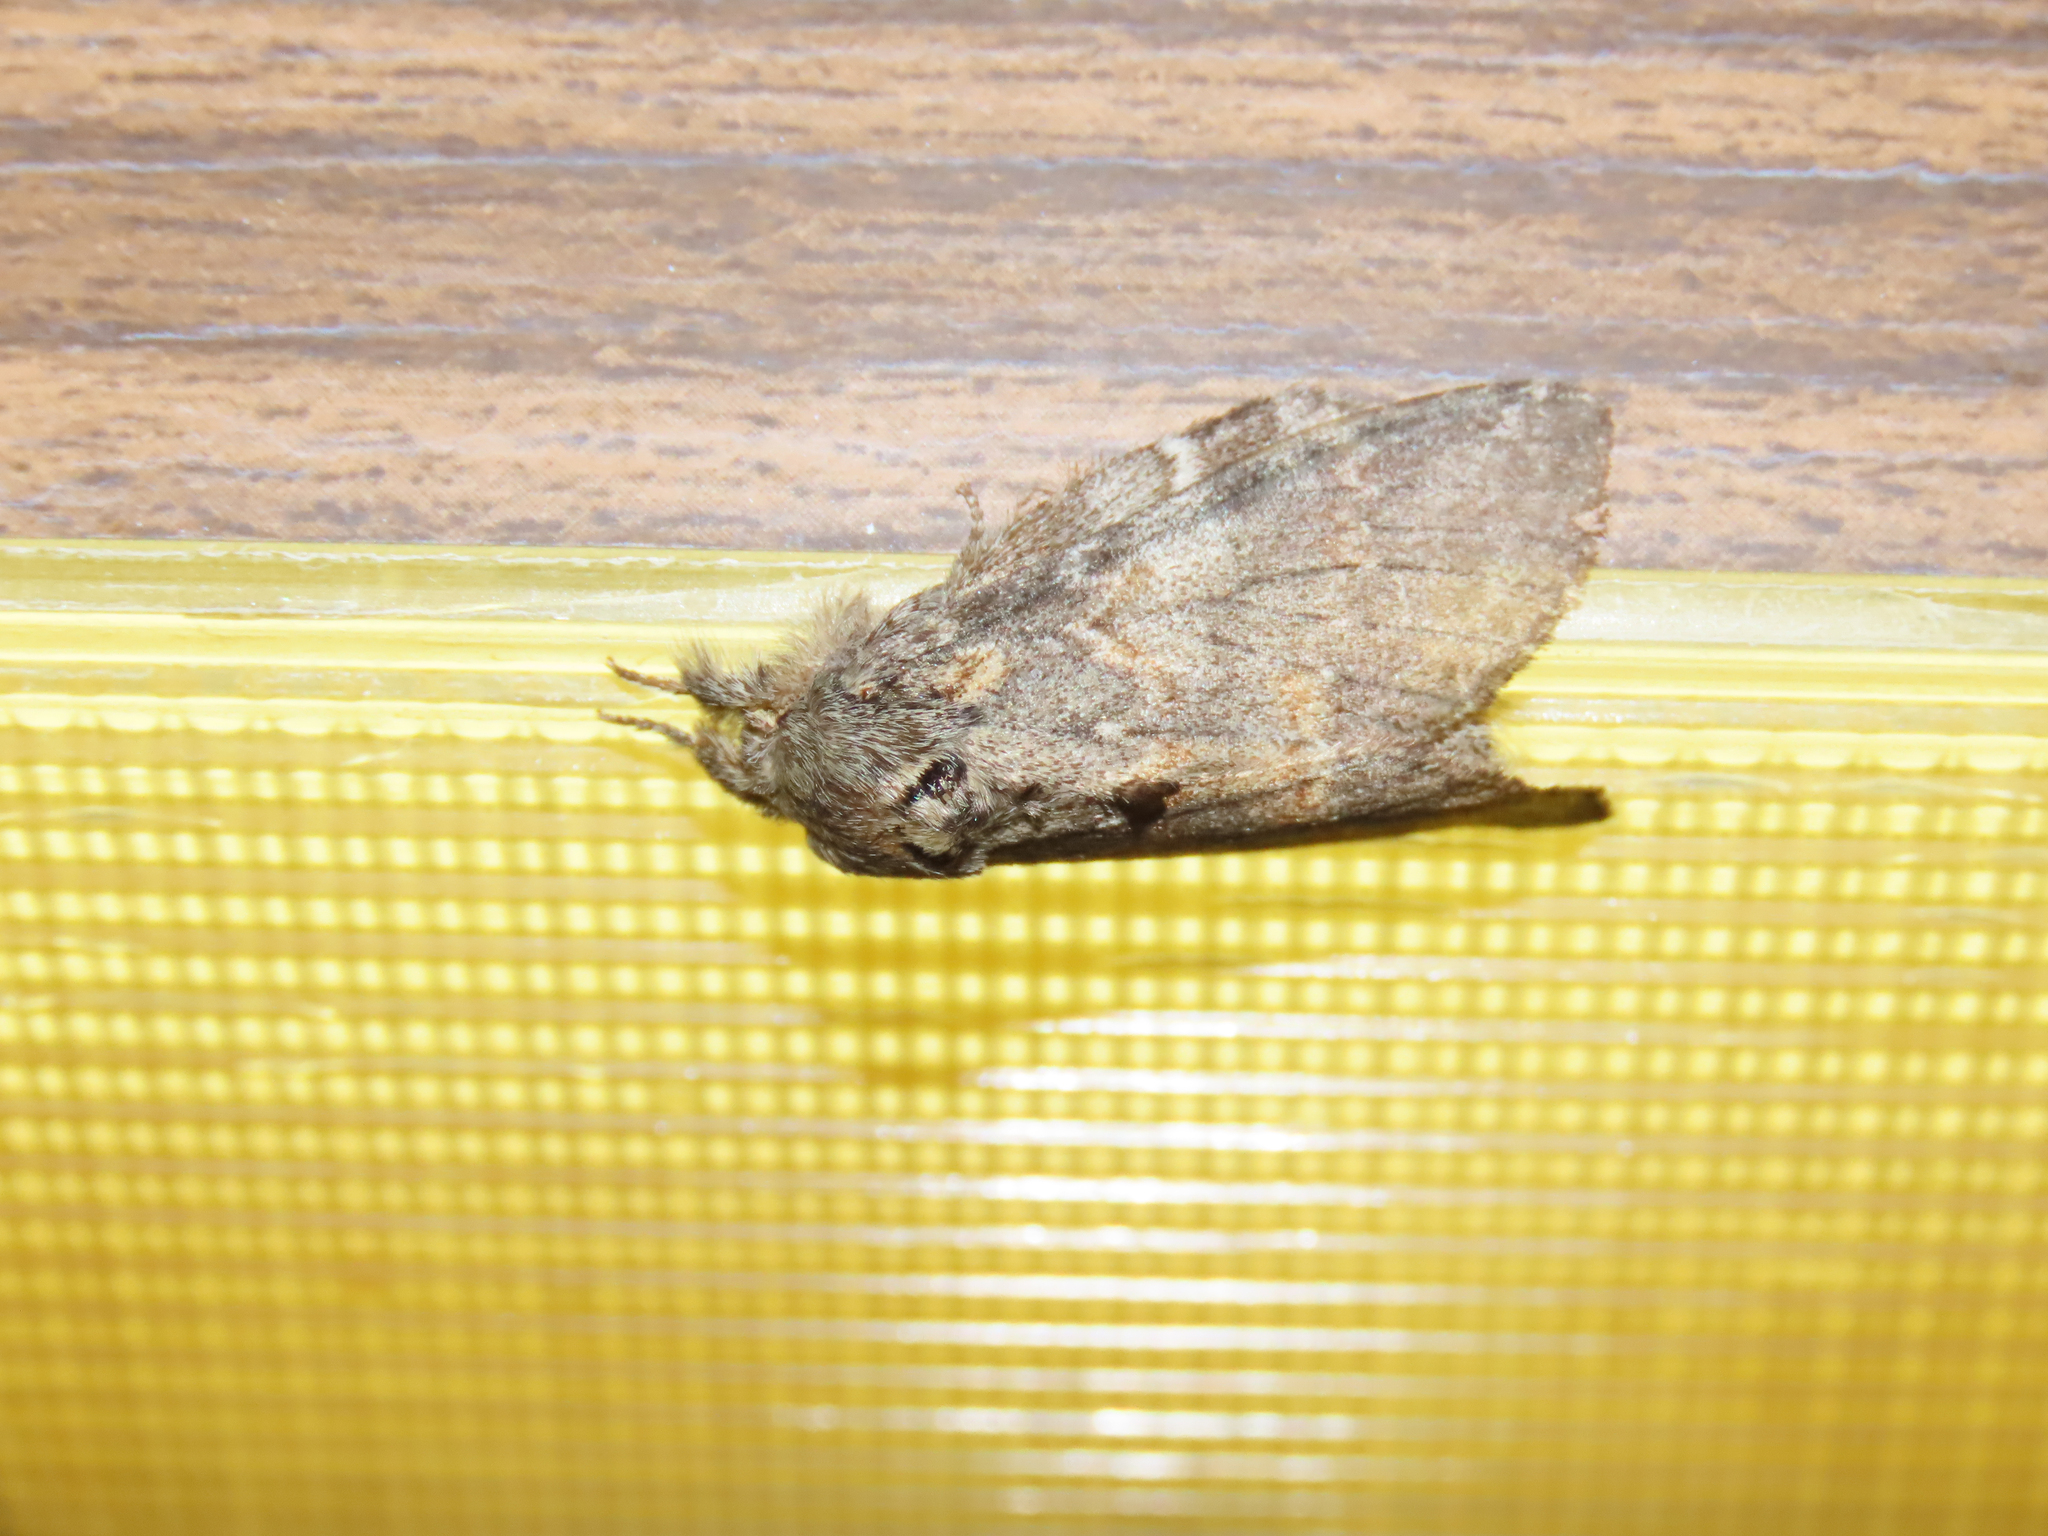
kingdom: Animalia
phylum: Arthropoda
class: Insecta
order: Lepidoptera
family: Notodontidae
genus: Peridea
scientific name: Peridea angulosa
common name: Angulose prominent
